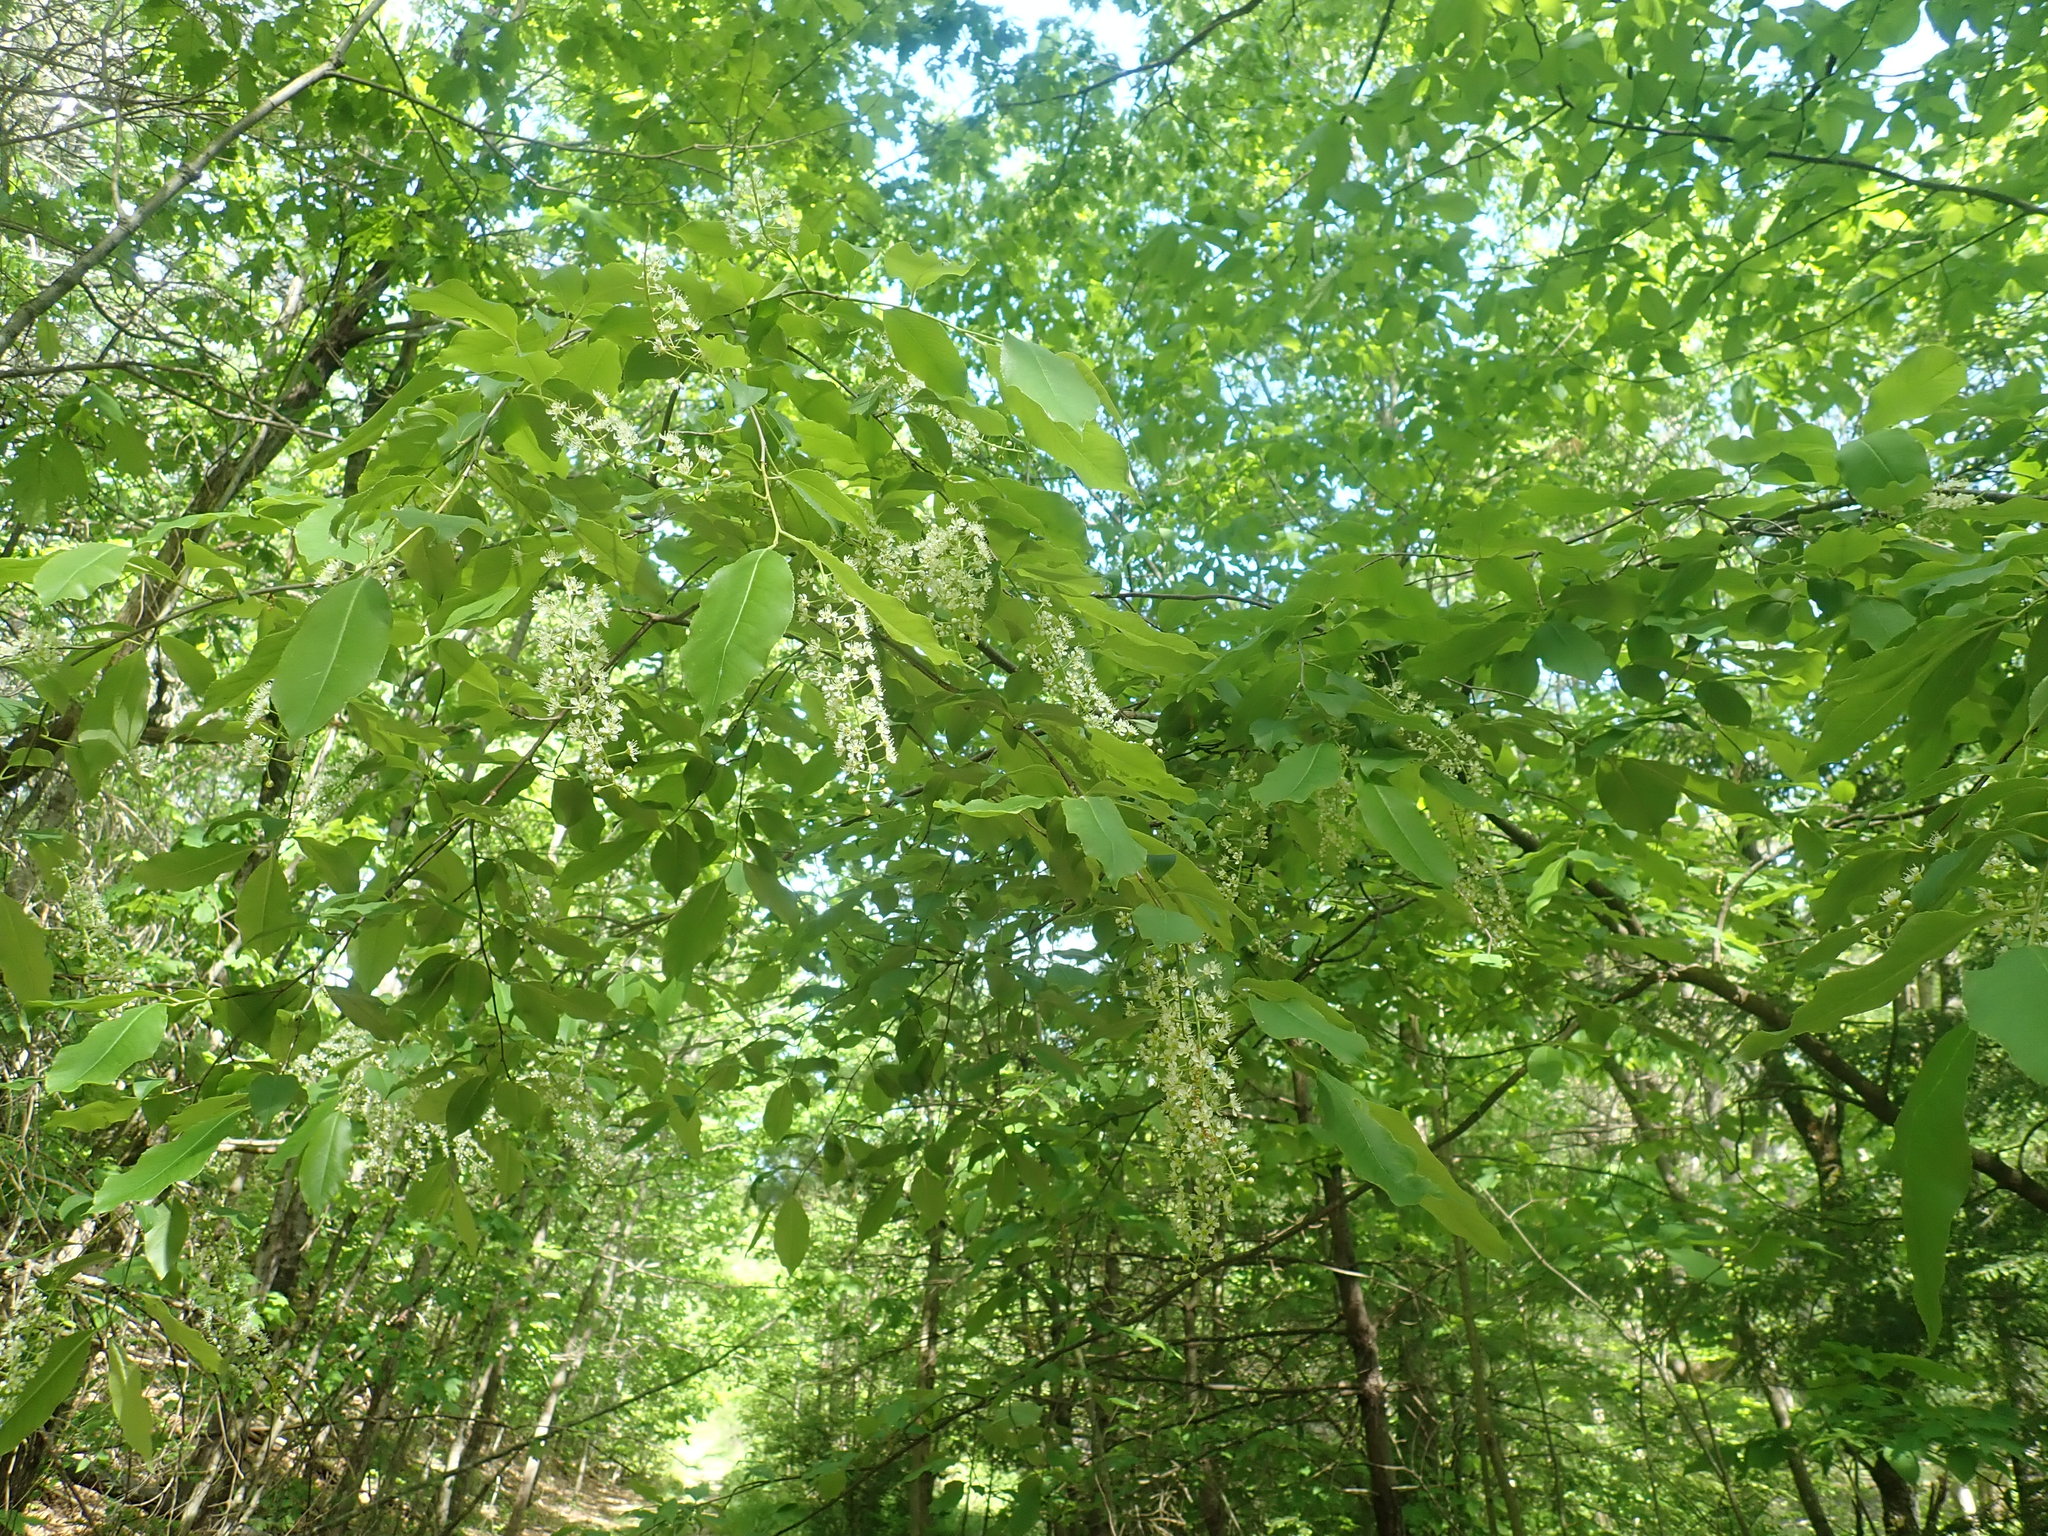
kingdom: Plantae
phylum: Tracheophyta
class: Magnoliopsida
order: Rosales
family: Rosaceae
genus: Prunus
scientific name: Prunus serotina
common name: Black cherry
